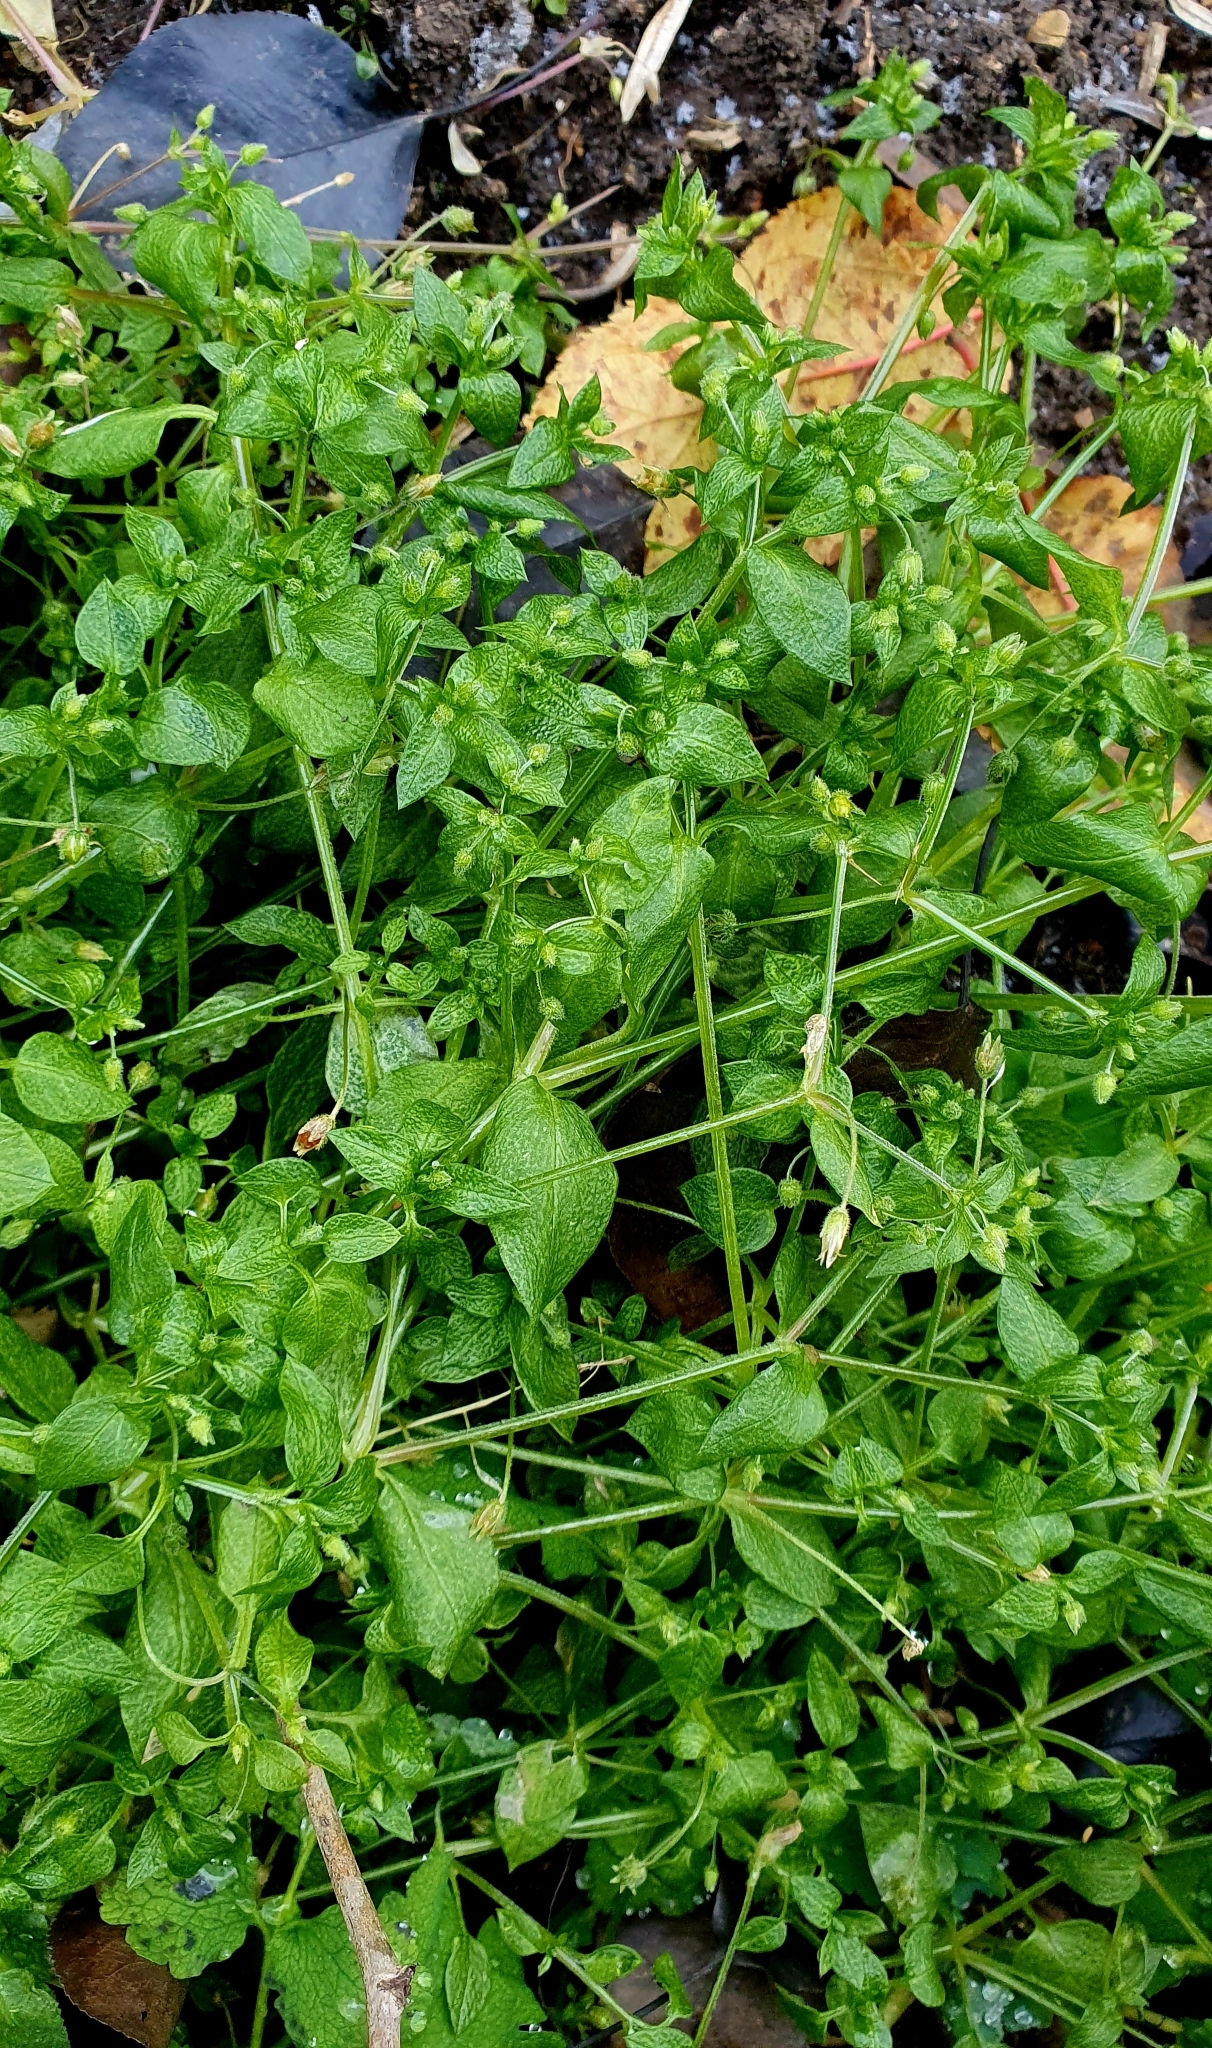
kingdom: Plantae
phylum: Tracheophyta
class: Magnoliopsida
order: Caryophyllales
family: Caryophyllaceae
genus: Stellaria
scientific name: Stellaria media
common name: Common chickweed
